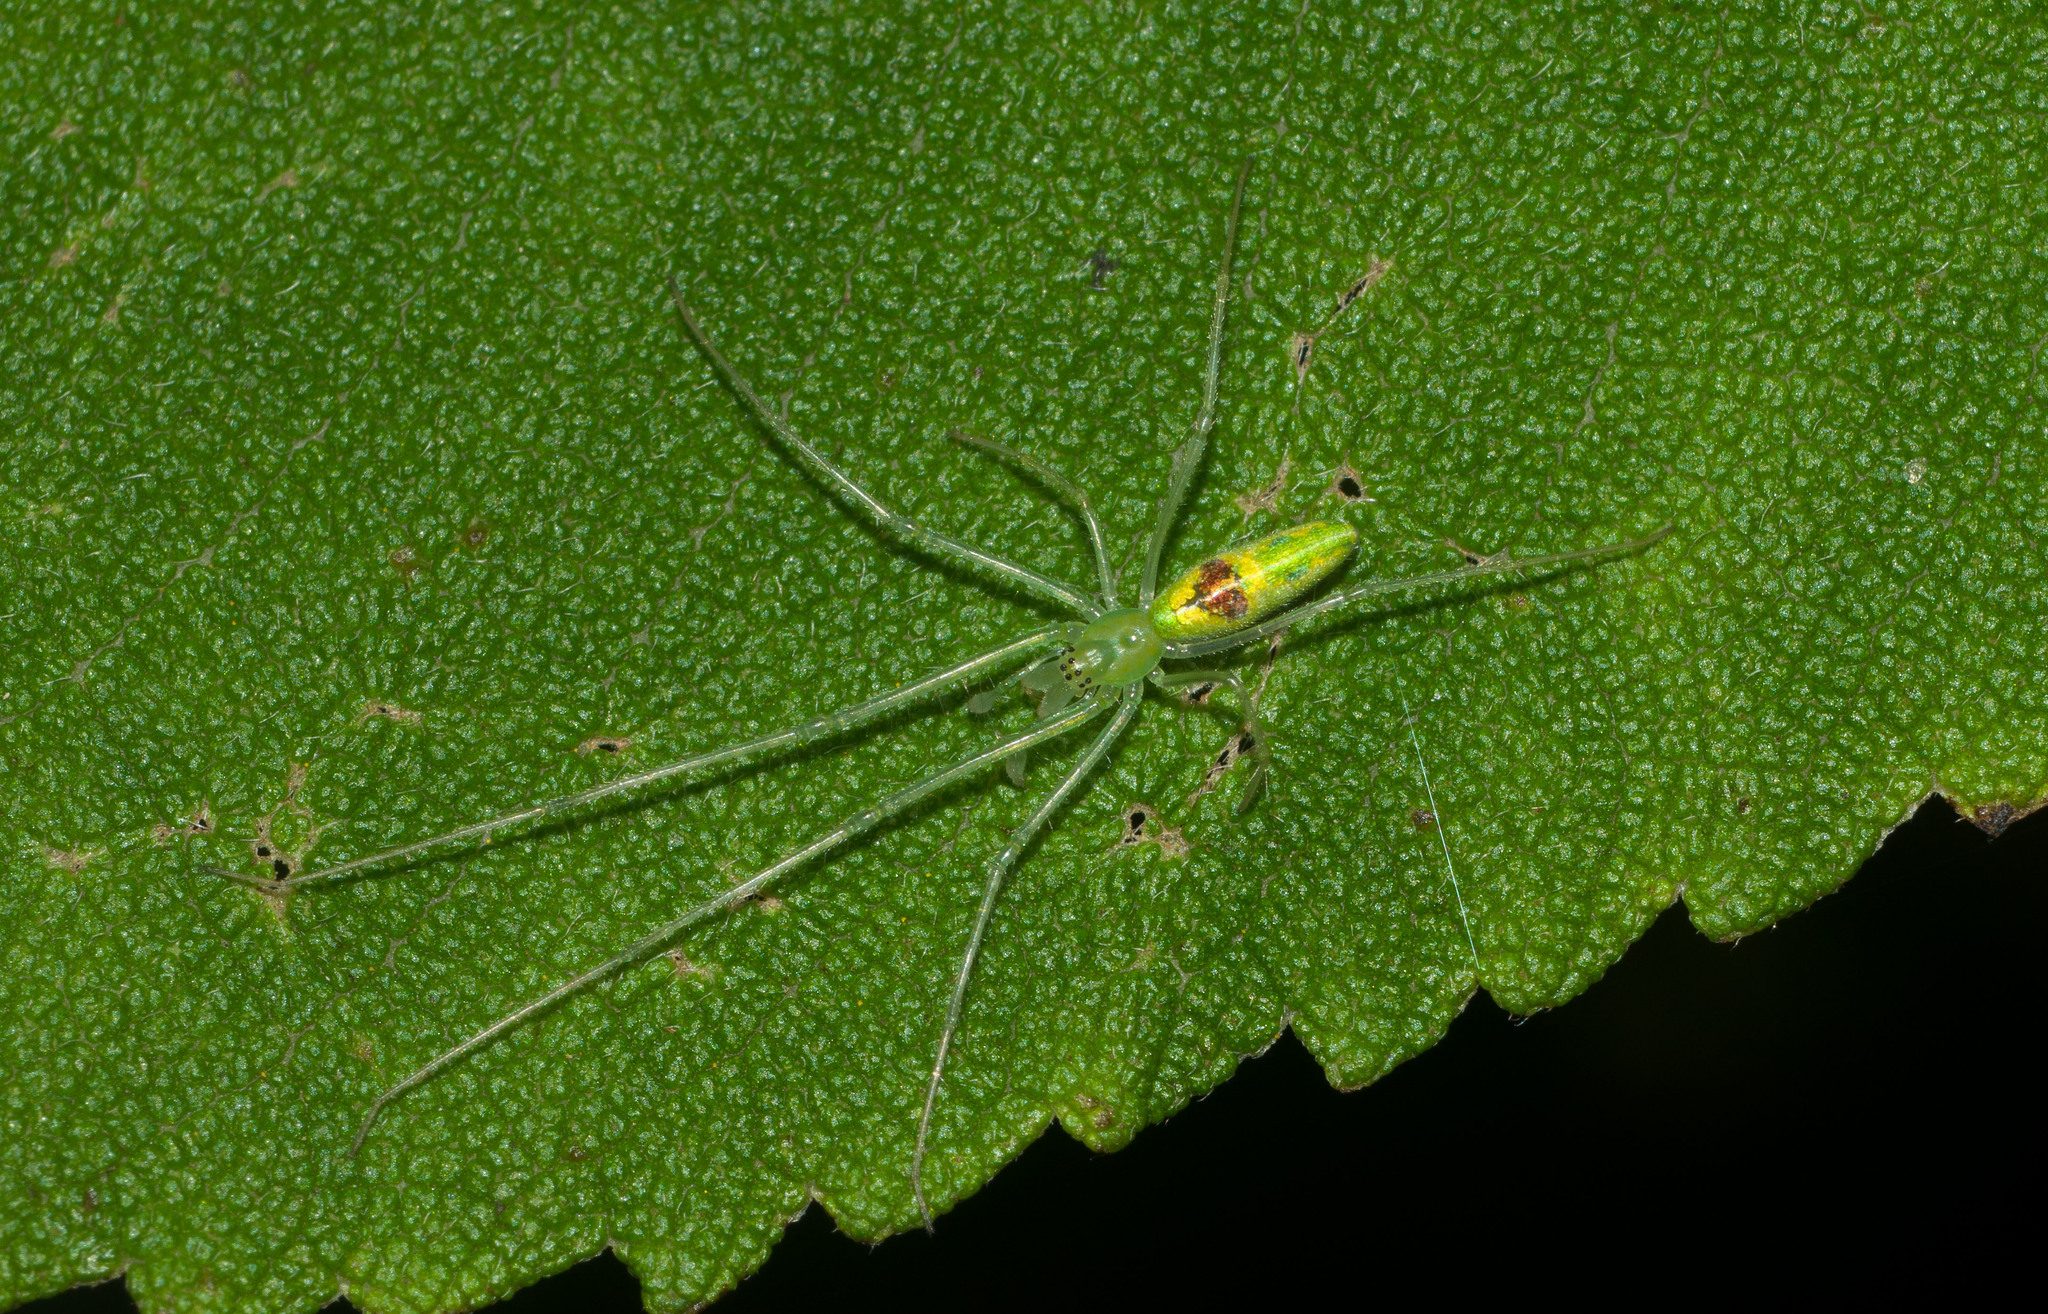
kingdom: Animalia
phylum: Arthropoda
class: Arachnida
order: Araneae
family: Tetragnathidae
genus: Tetragnatha
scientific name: Tetragnatha polychromata
